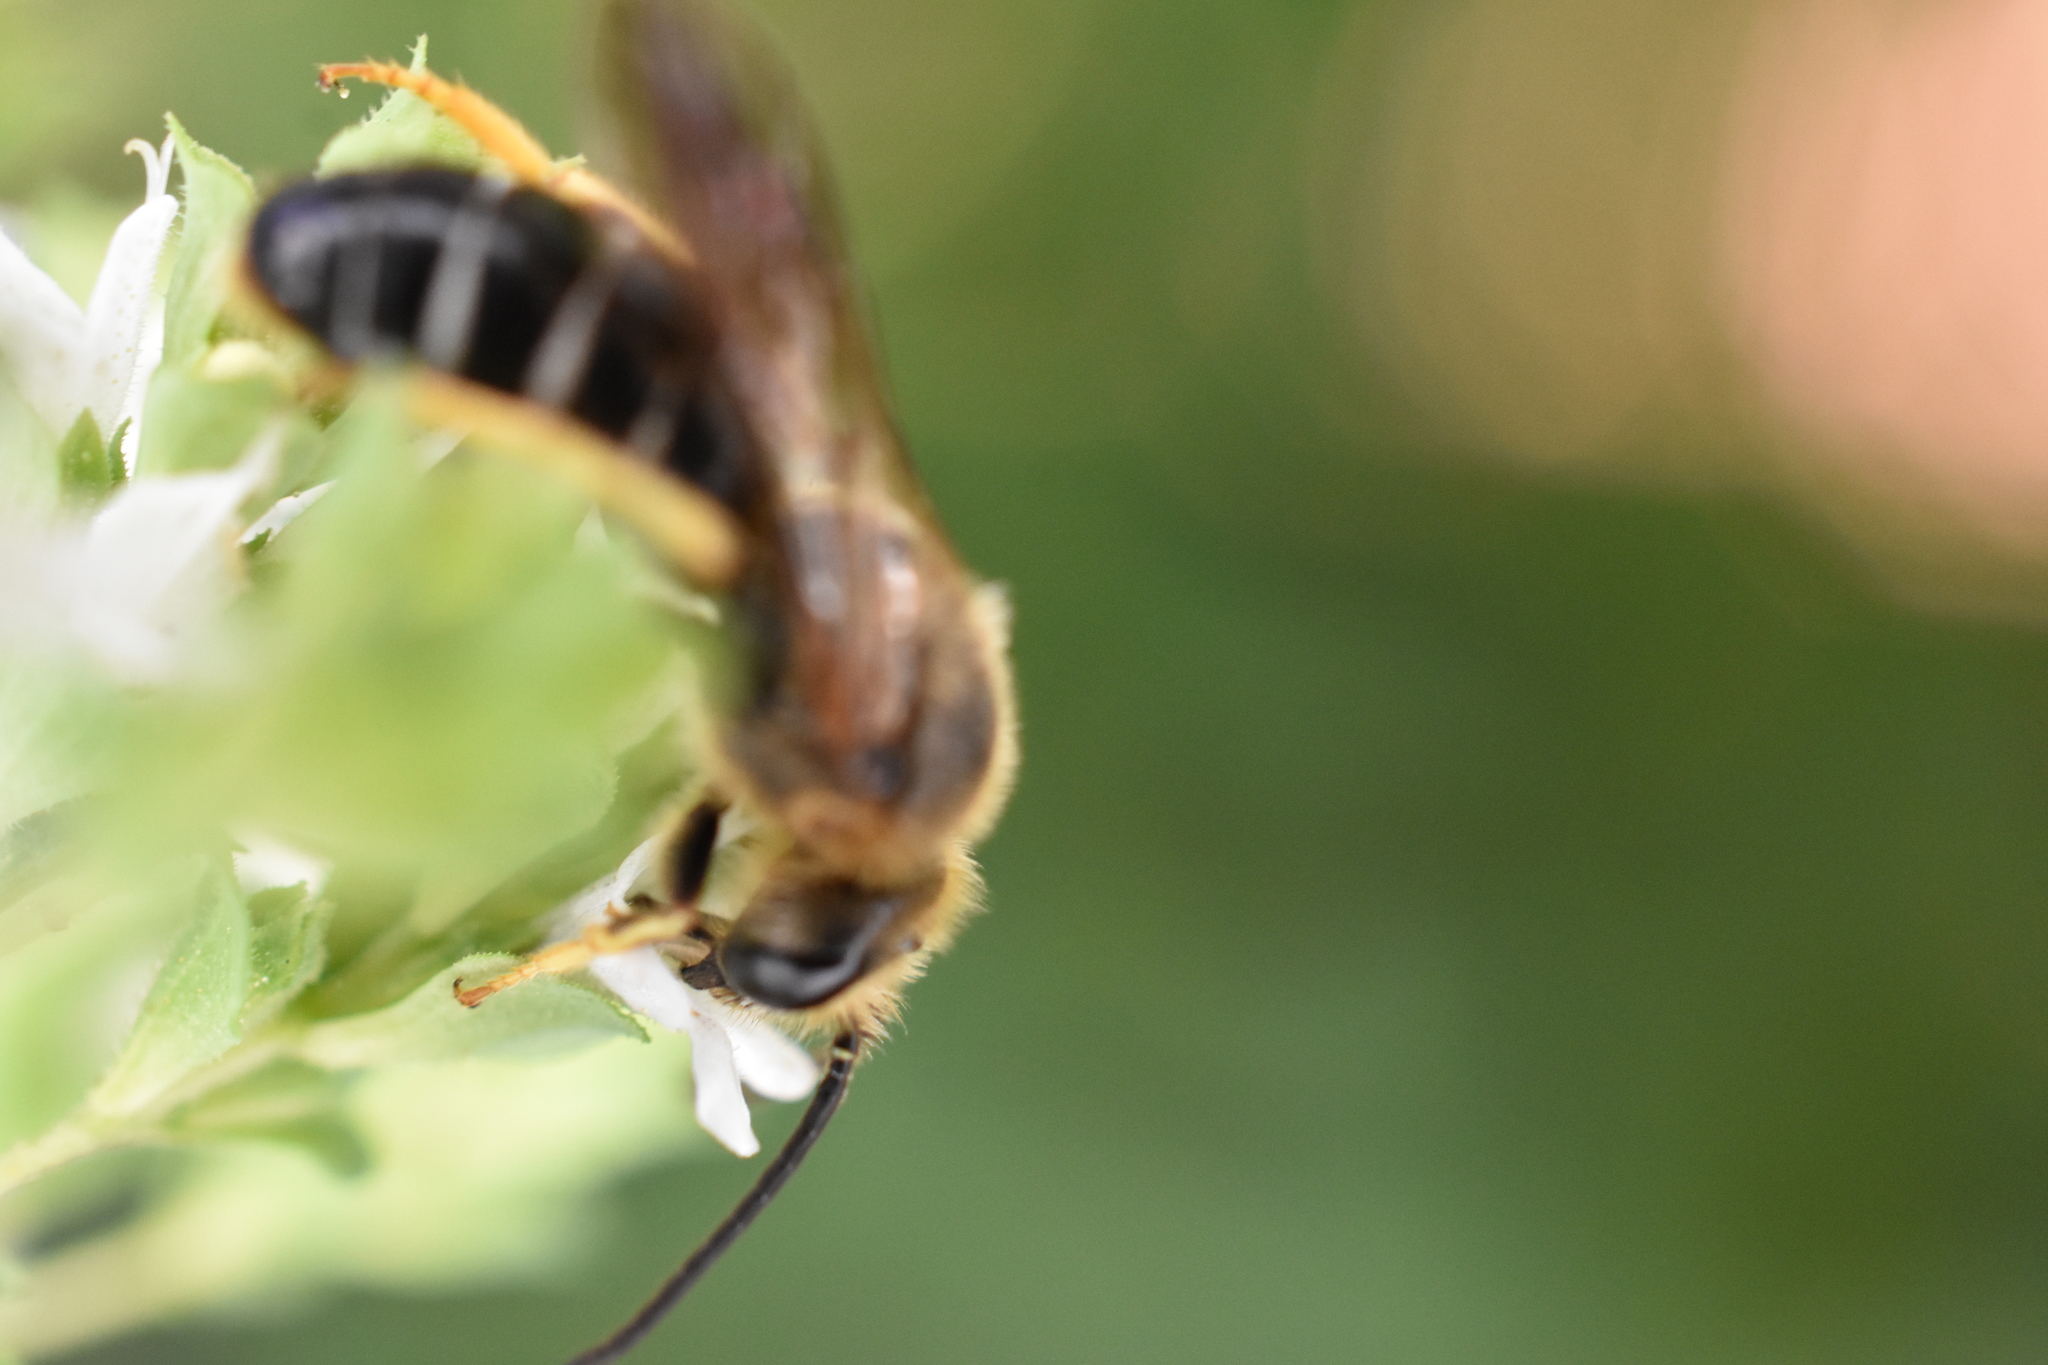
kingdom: Animalia
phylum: Arthropoda
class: Insecta
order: Hymenoptera
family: Halictidae
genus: Halictus
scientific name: Halictus rubicundus
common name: Orange-legged furrow bee
